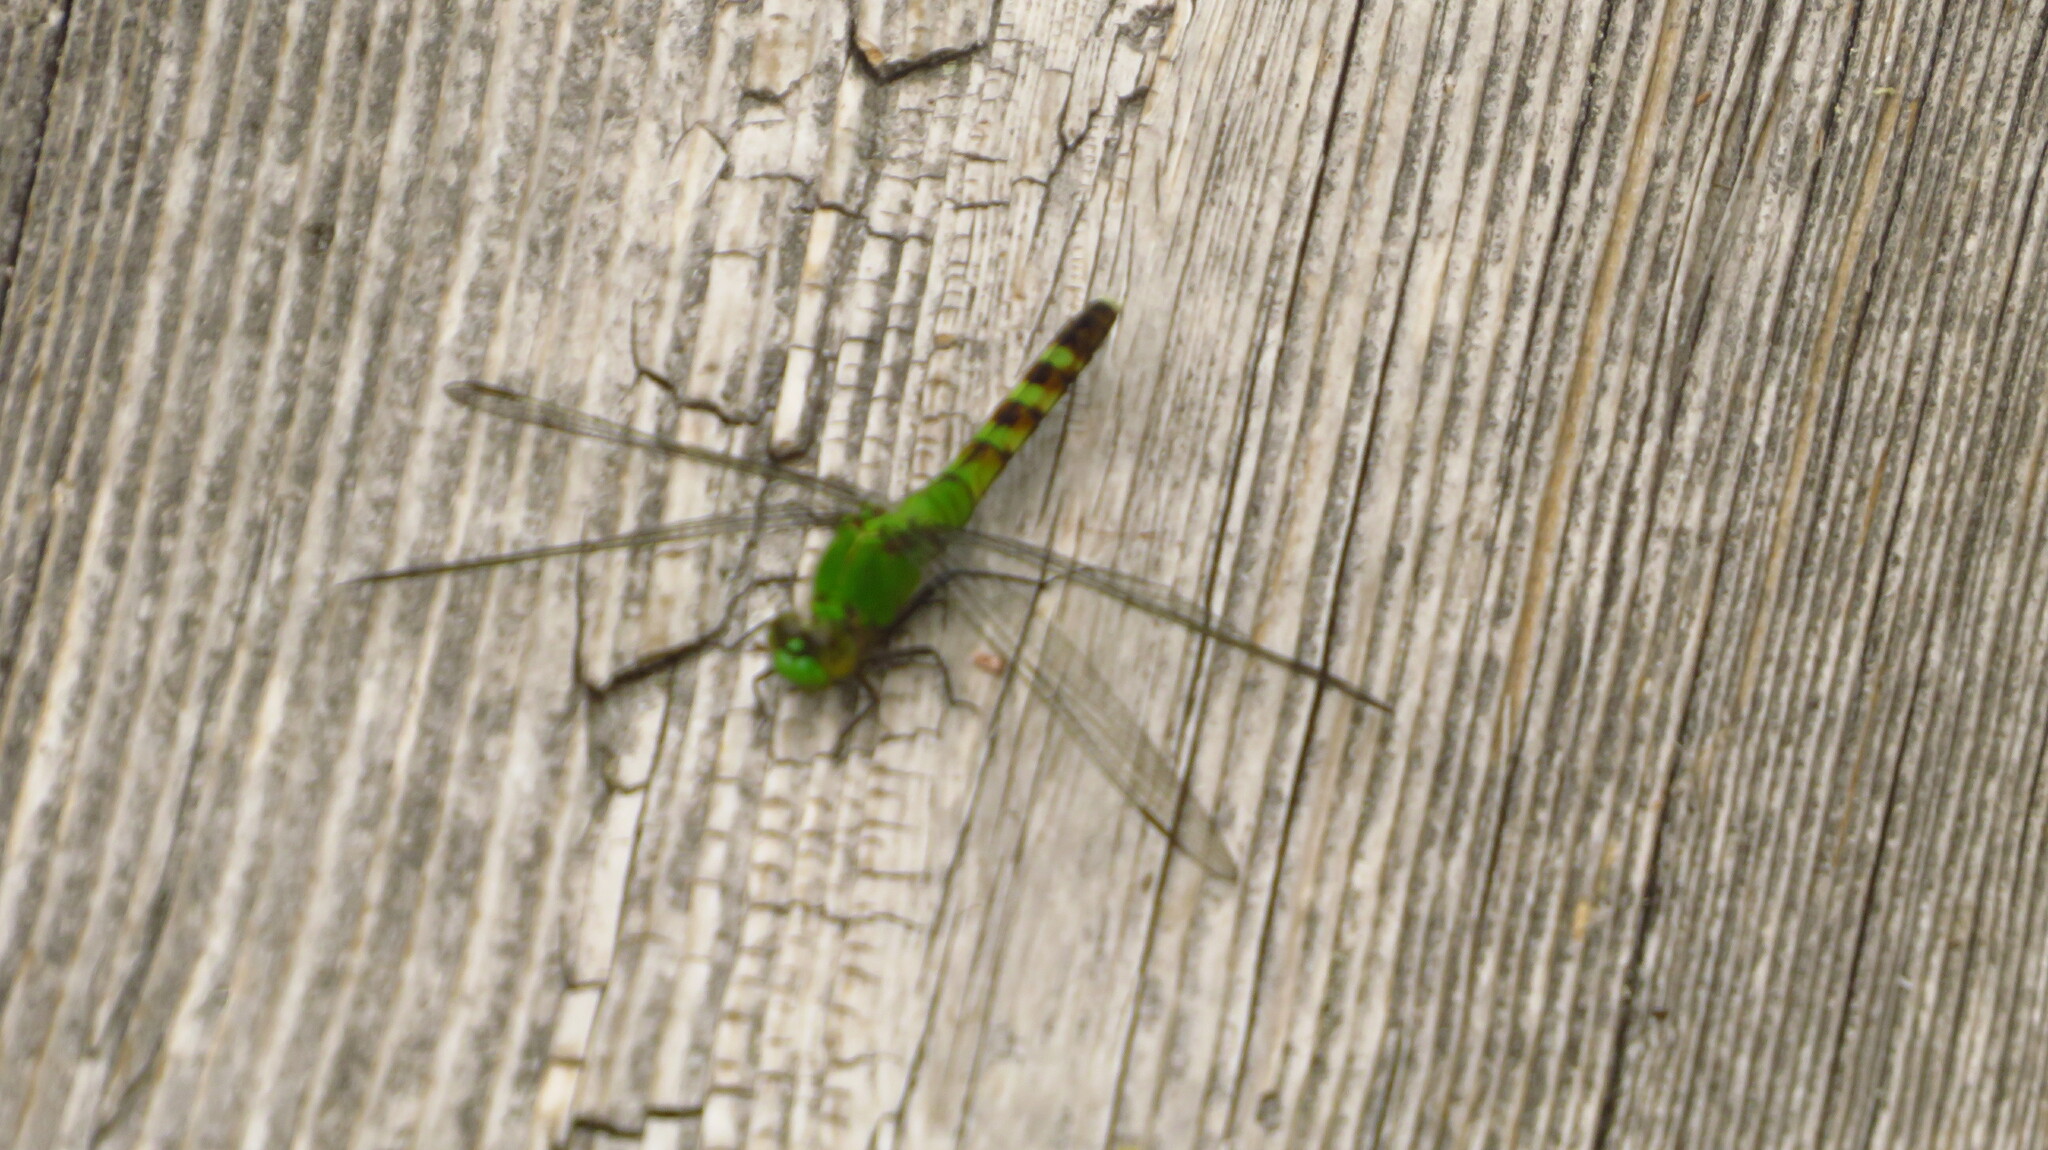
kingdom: Animalia
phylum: Arthropoda
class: Insecta
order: Odonata
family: Libellulidae
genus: Erythemis
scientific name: Erythemis simplicicollis
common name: Eastern pondhawk
